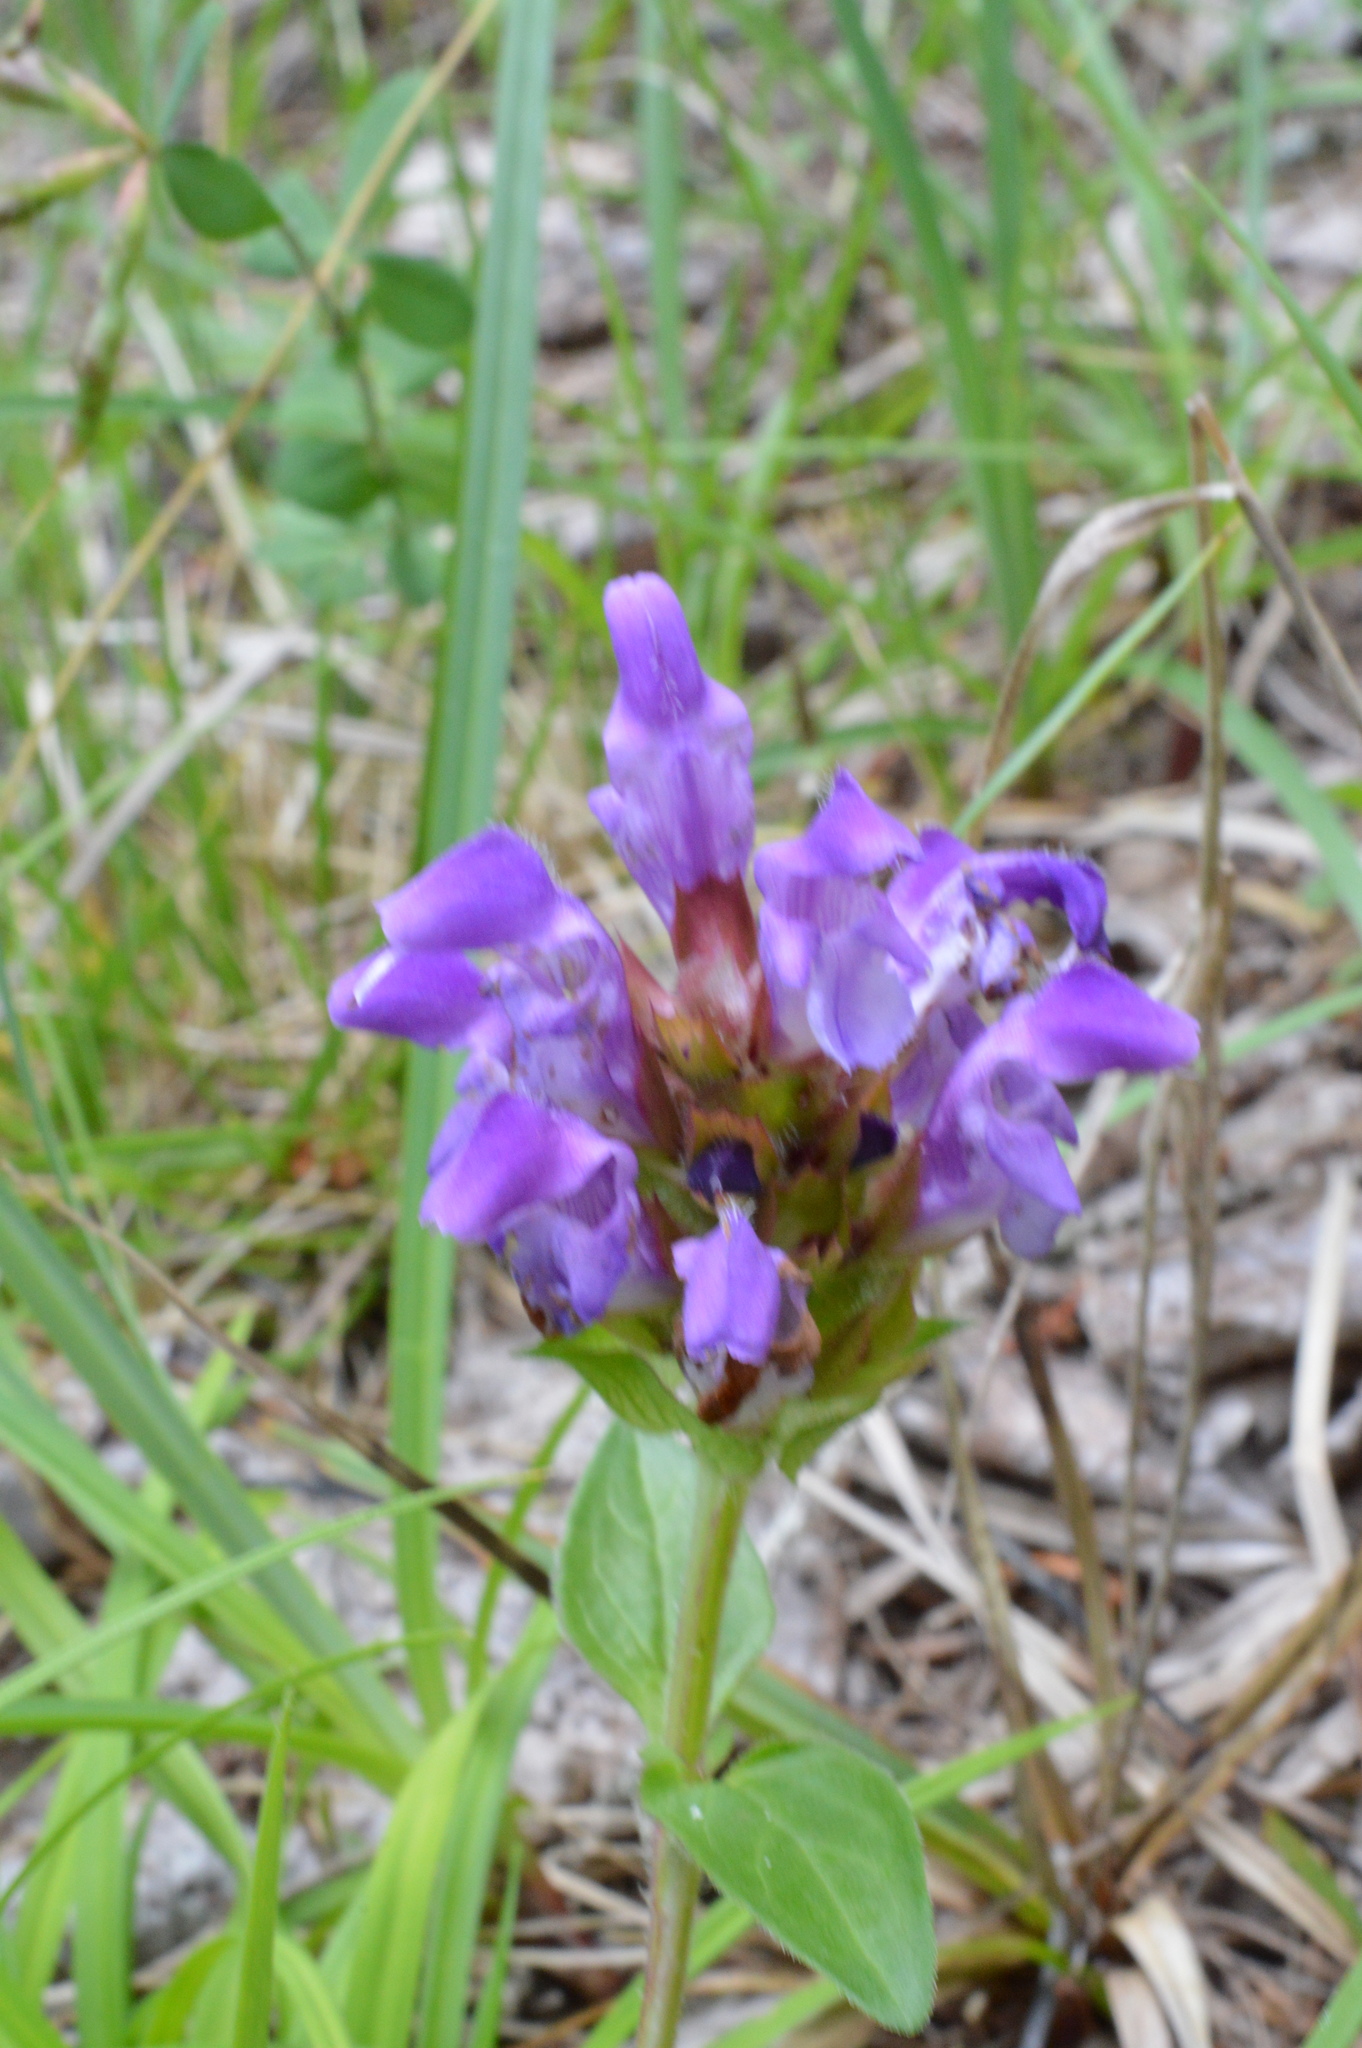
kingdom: Plantae
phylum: Tracheophyta
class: Magnoliopsida
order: Lamiales
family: Lamiaceae
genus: Prunella
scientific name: Prunella grandiflora
